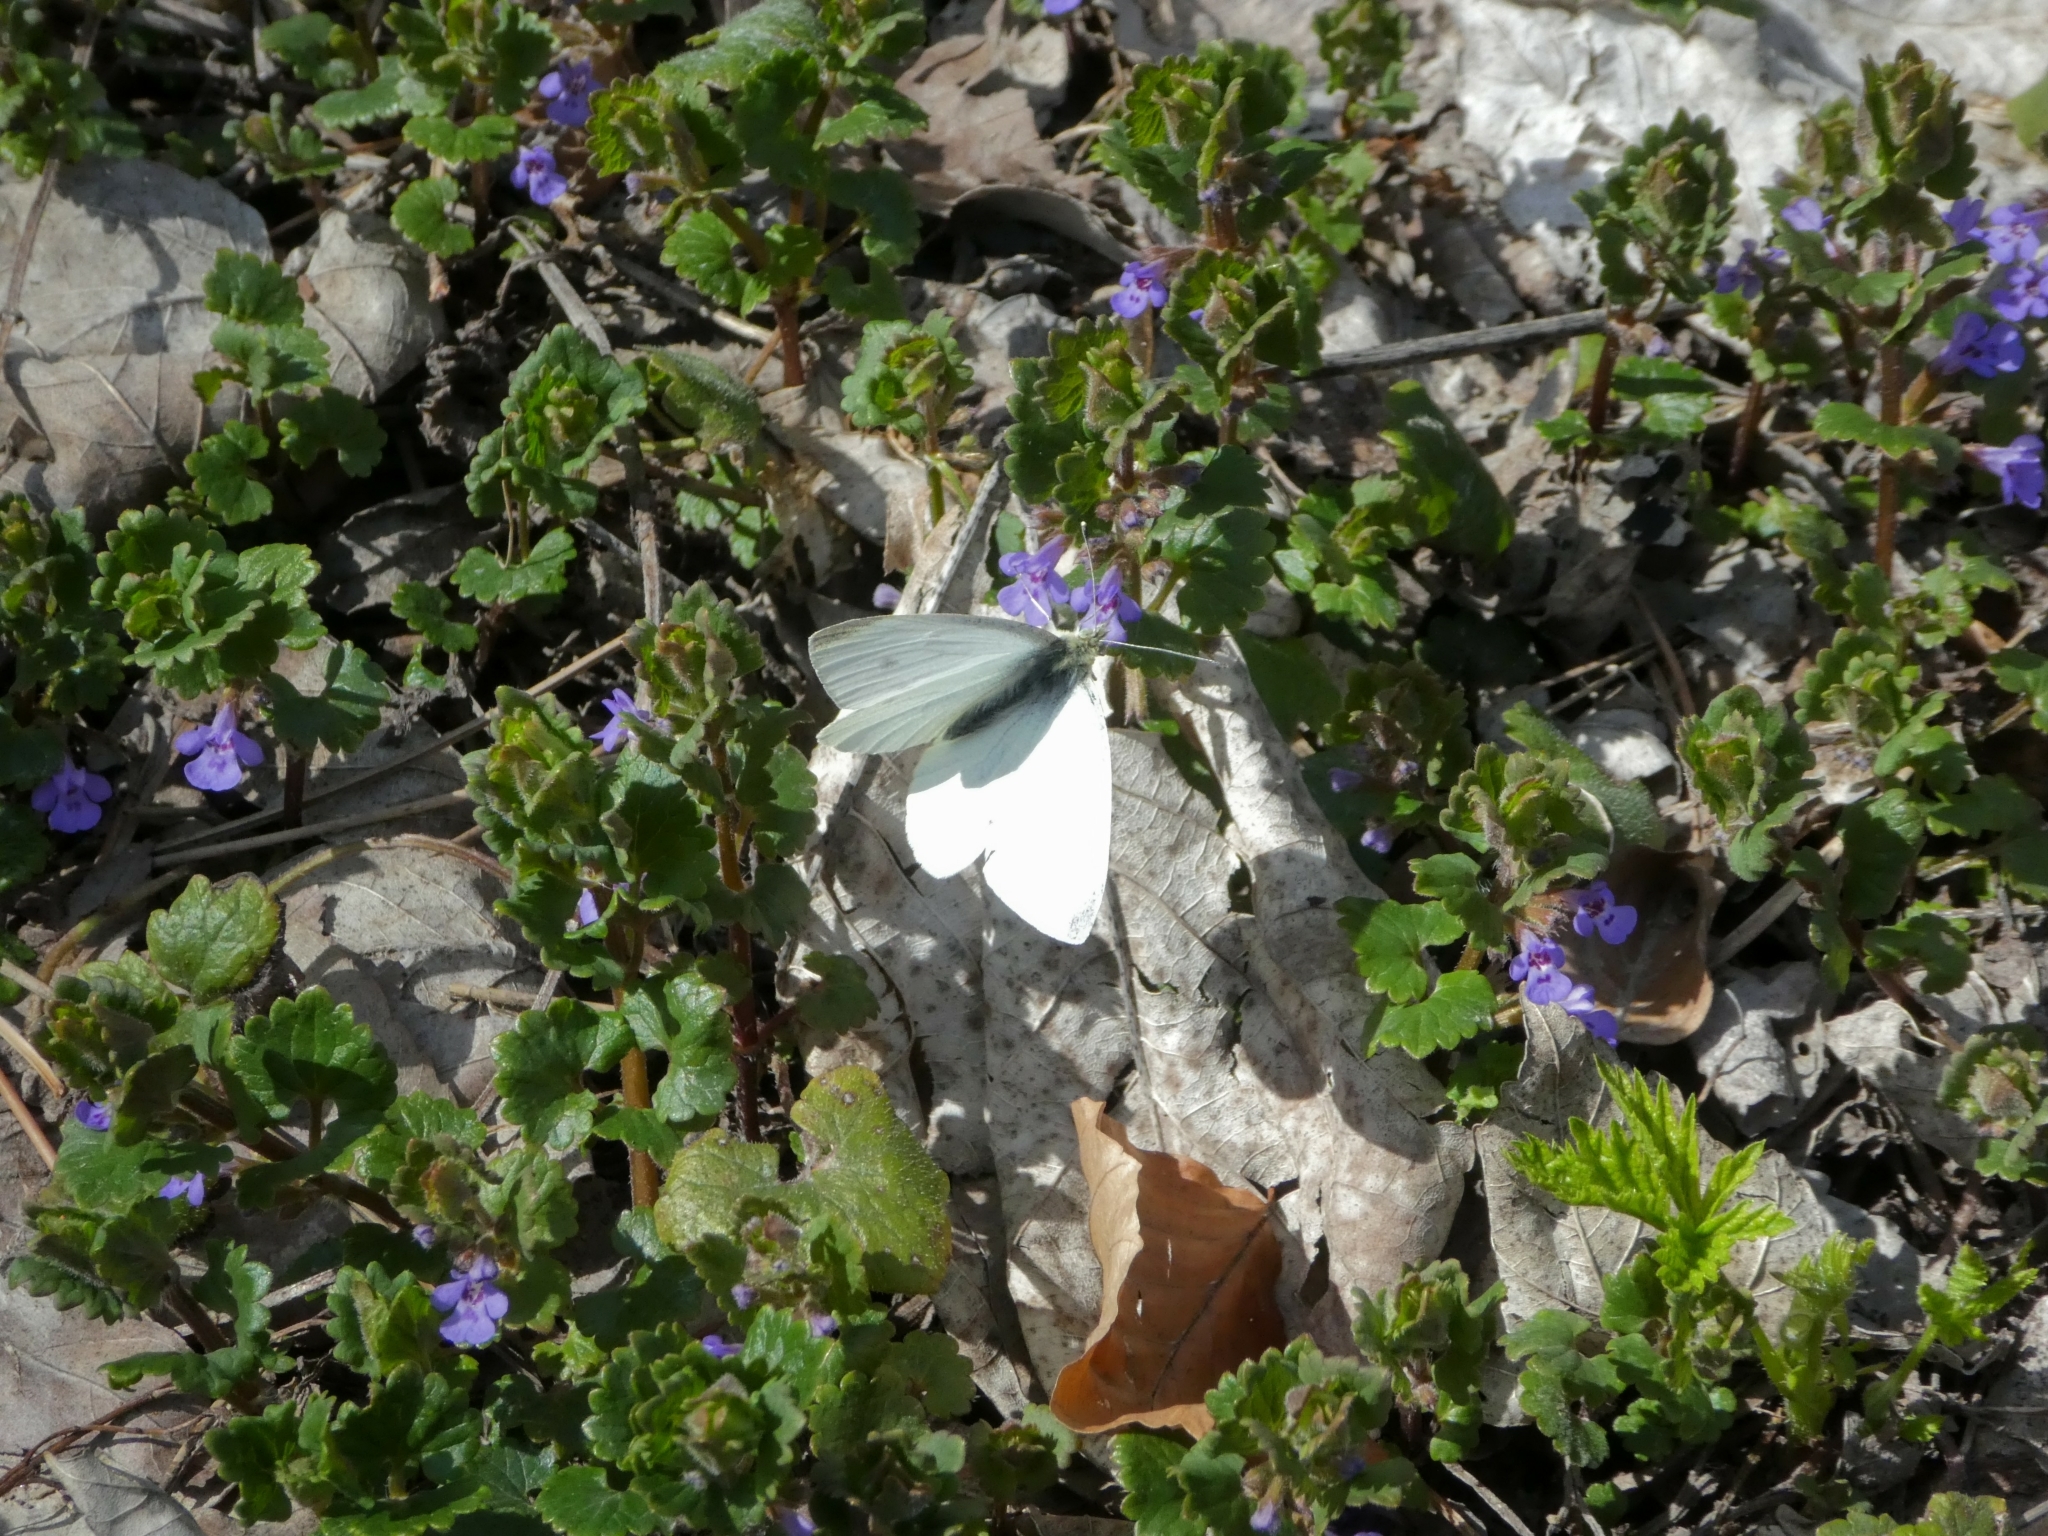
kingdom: Animalia
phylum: Arthropoda
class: Insecta
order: Lepidoptera
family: Pieridae
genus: Pieris
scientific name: Pieris napi
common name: Green-veined white
